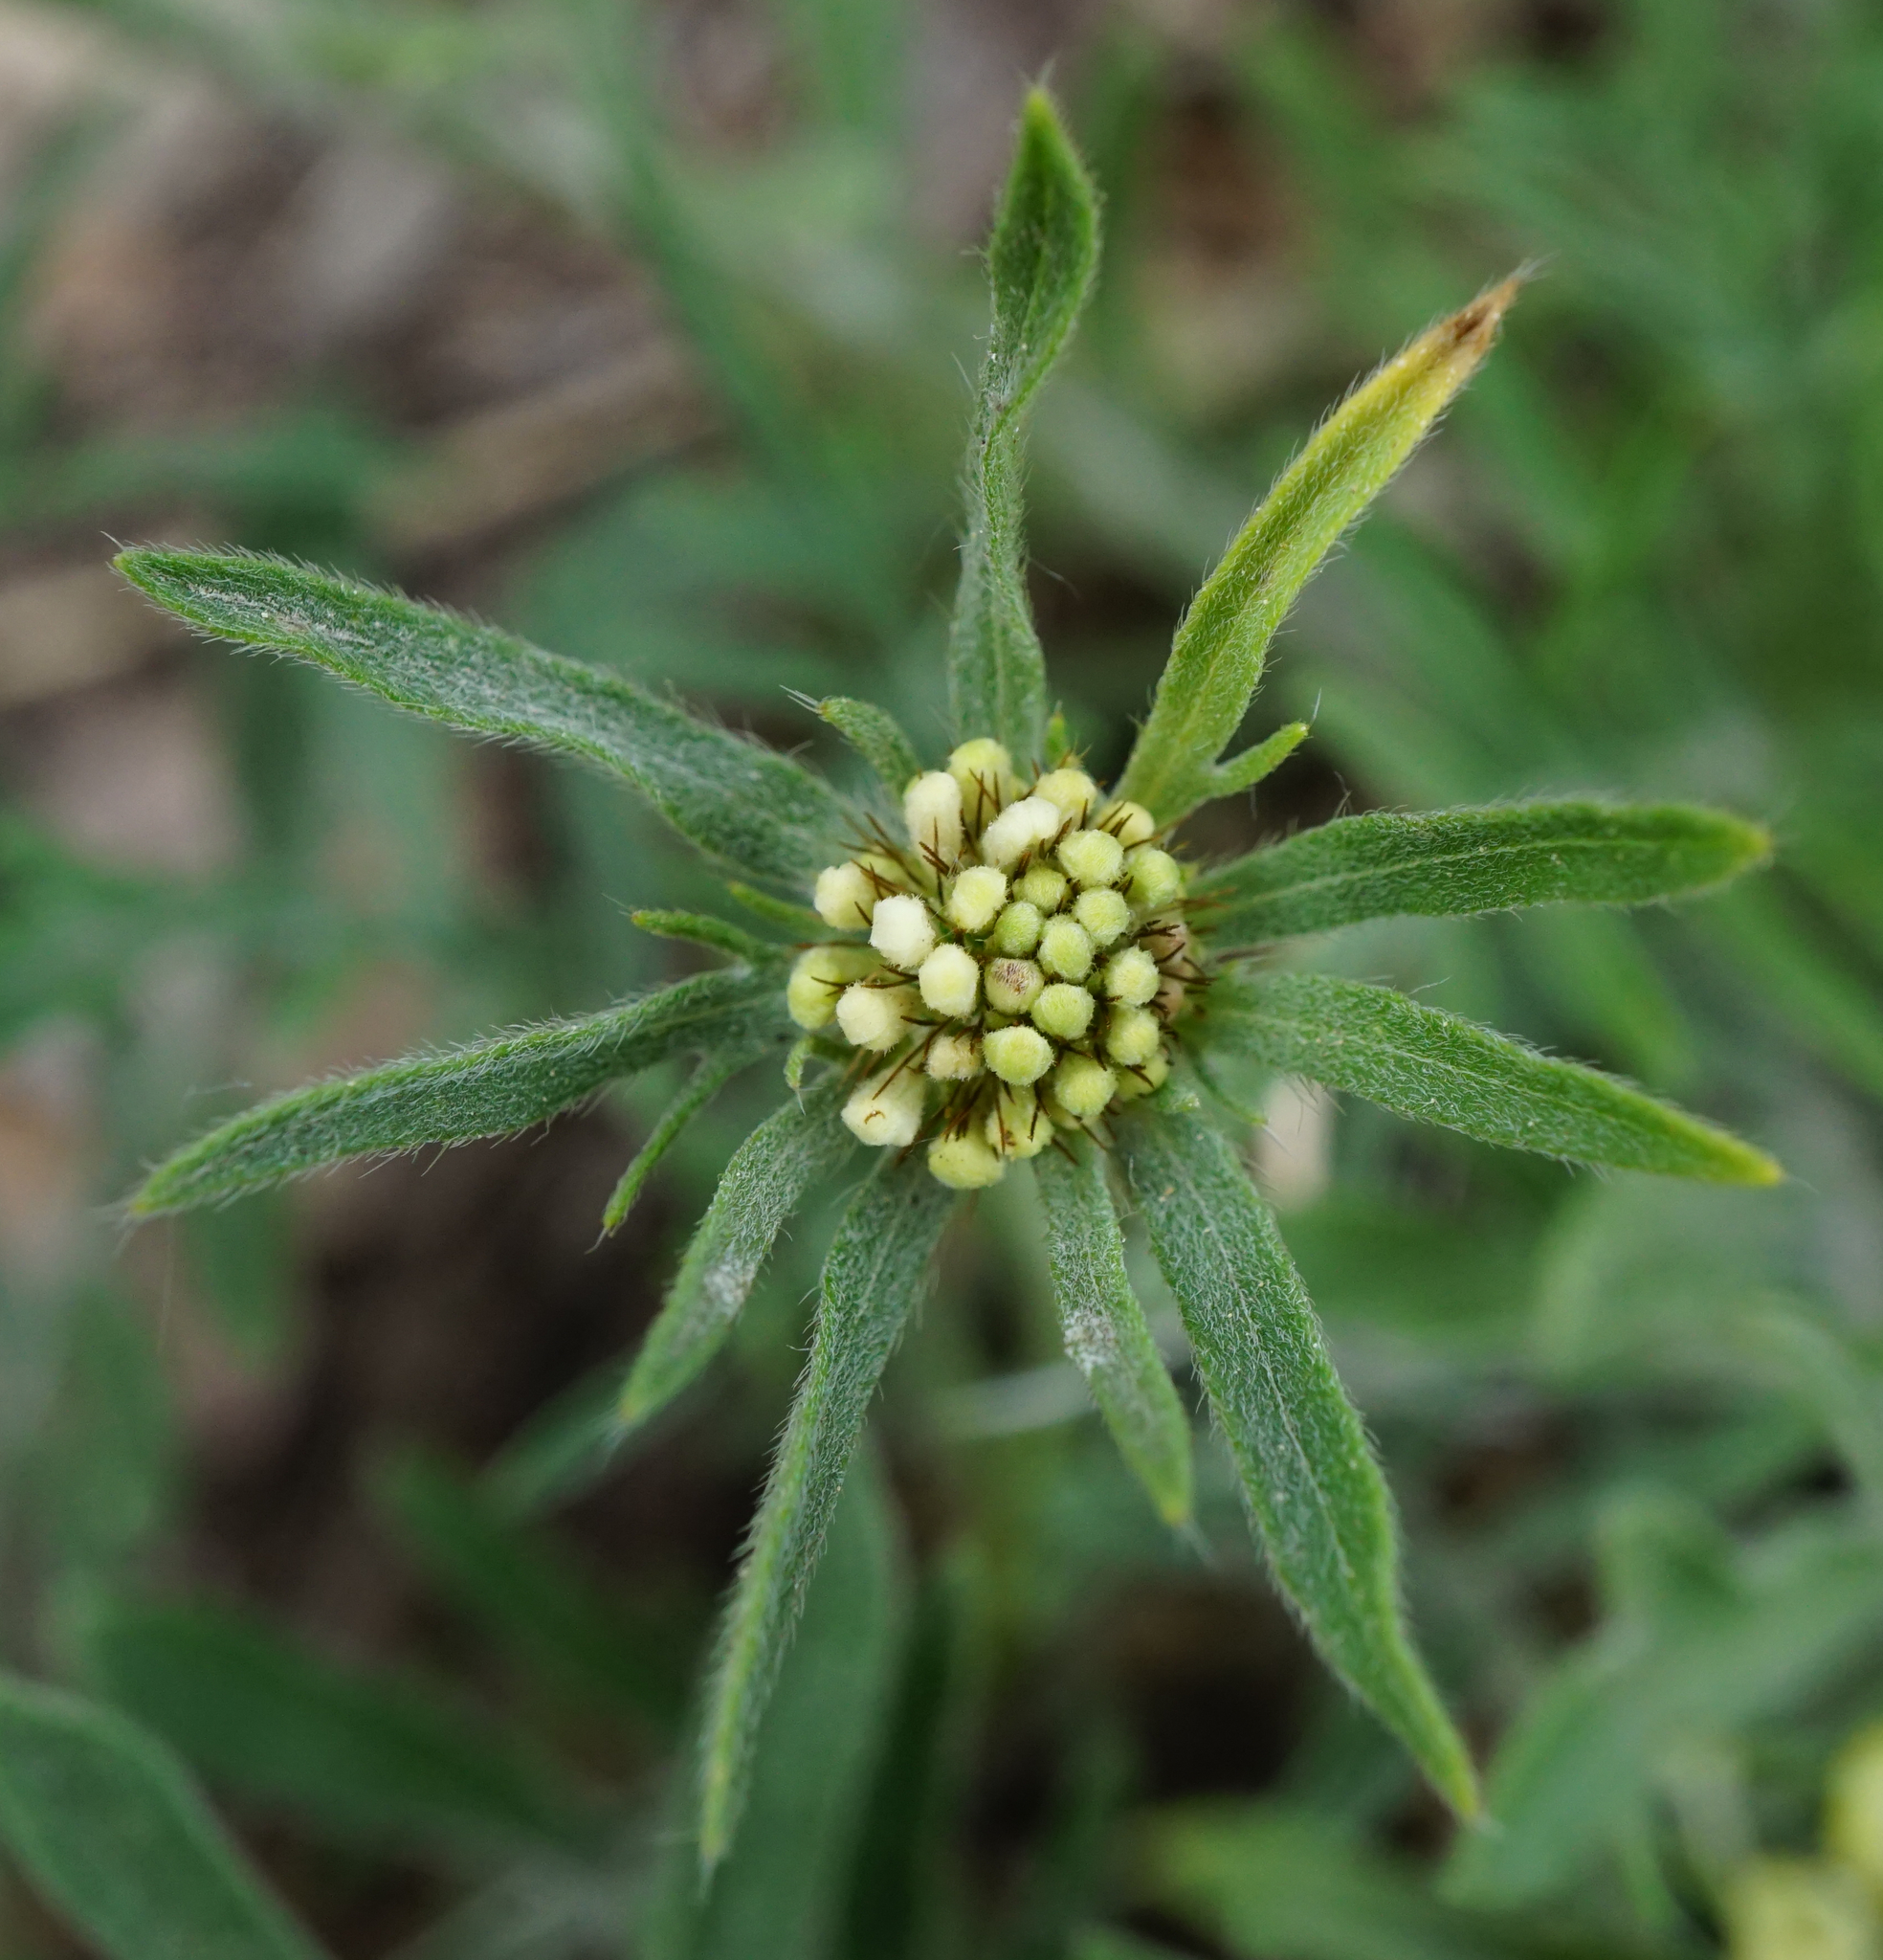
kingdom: Plantae
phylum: Tracheophyta
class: Magnoliopsida
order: Dipsacales
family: Caprifoliaceae
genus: Scabiosa
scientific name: Scabiosa ochroleuca
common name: Cream pincushions
